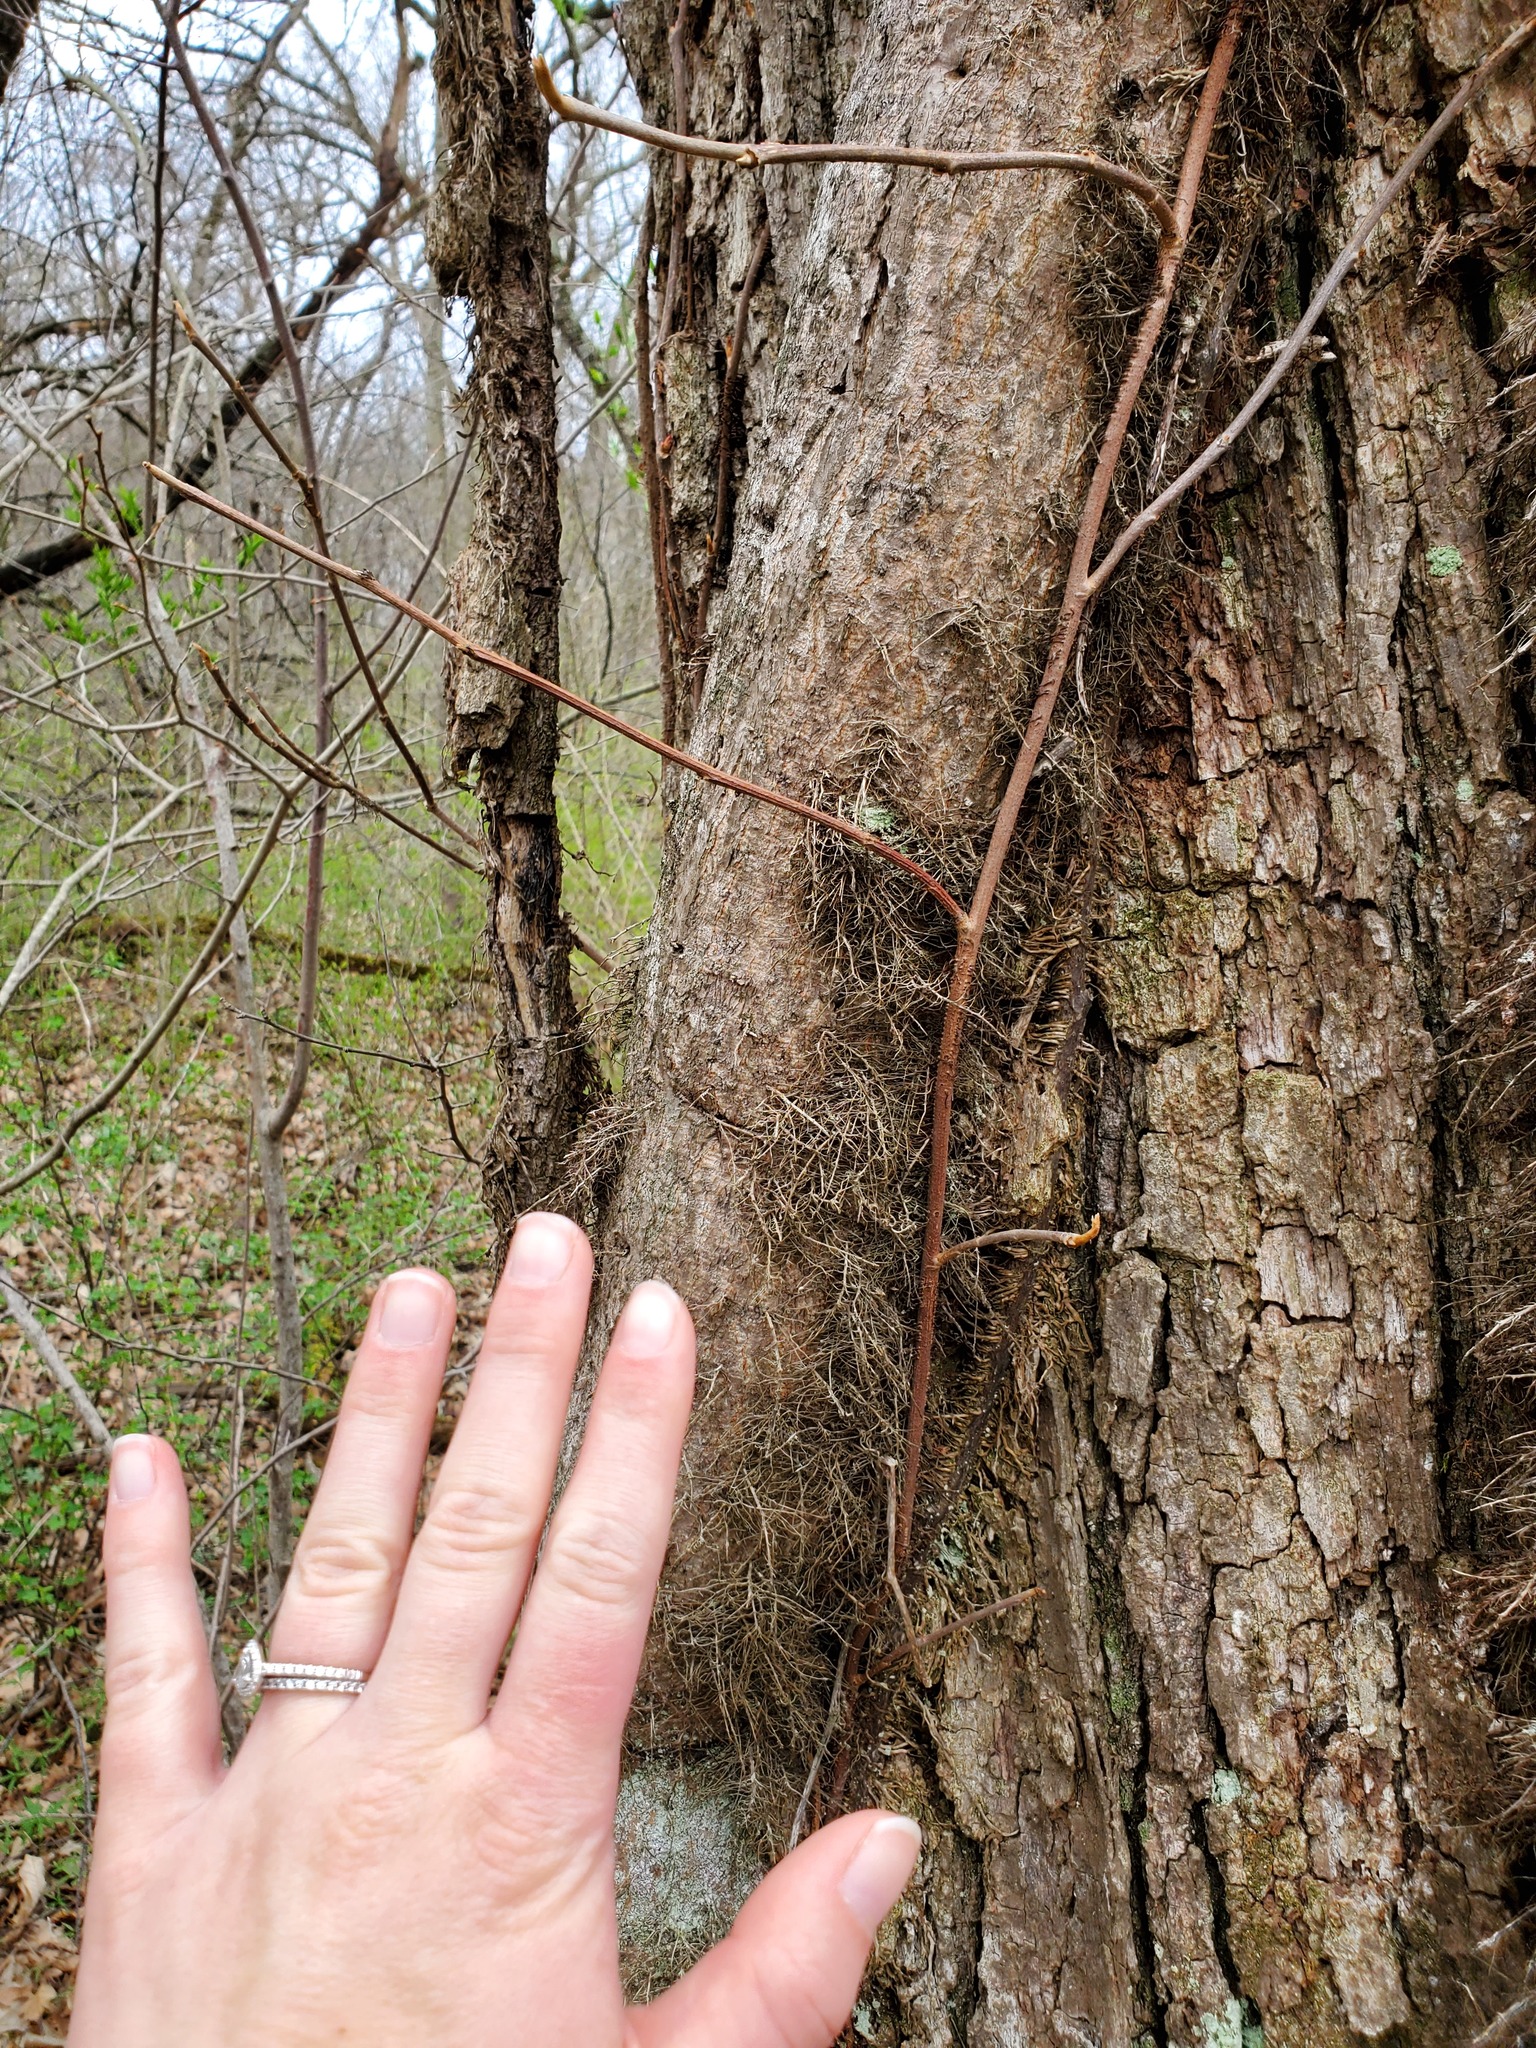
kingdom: Plantae
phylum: Tracheophyta
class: Magnoliopsida
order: Sapindales
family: Anacardiaceae
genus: Toxicodendron
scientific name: Toxicodendron radicans
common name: Poison ivy
